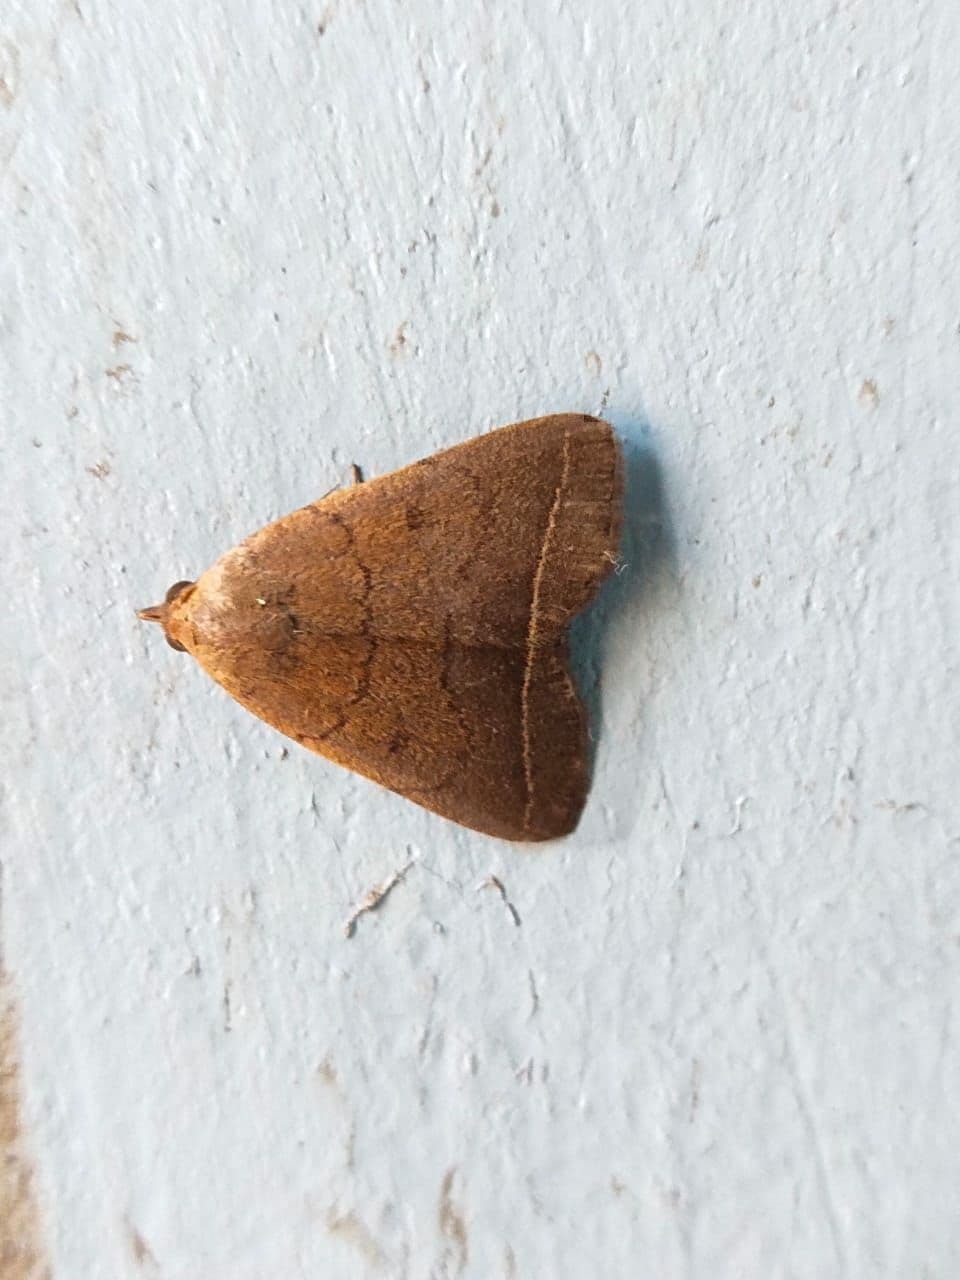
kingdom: Animalia
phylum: Arthropoda
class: Insecta
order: Lepidoptera
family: Erebidae
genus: Simplicia
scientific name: Simplicia cornicalis
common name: Tiki hut litter moth
